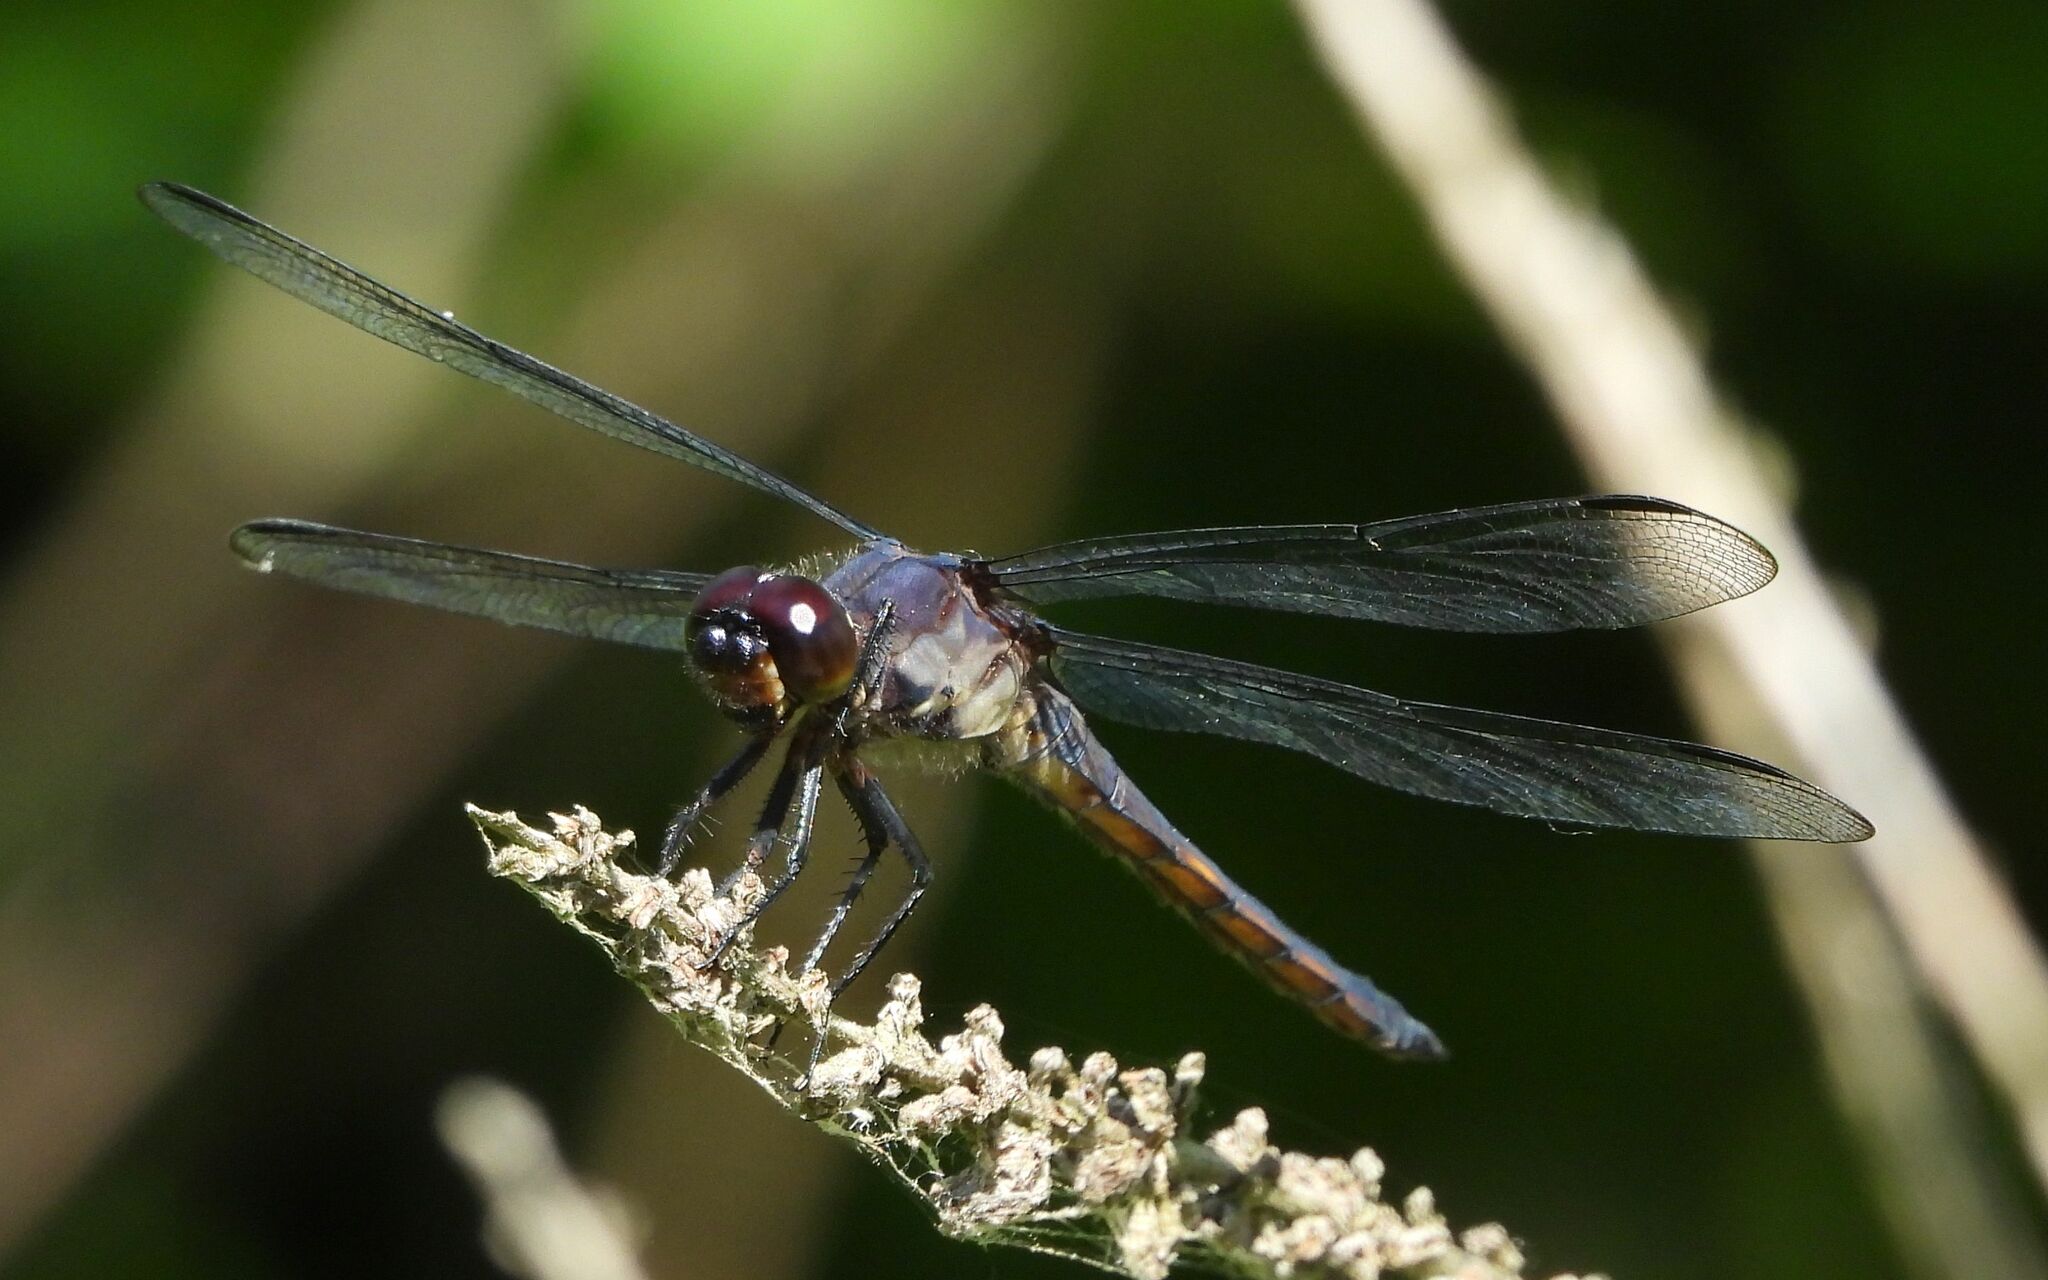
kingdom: Animalia
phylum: Arthropoda
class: Insecta
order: Odonata
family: Libellulidae
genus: Libellula
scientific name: Libellula incesta
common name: Slaty skimmer
